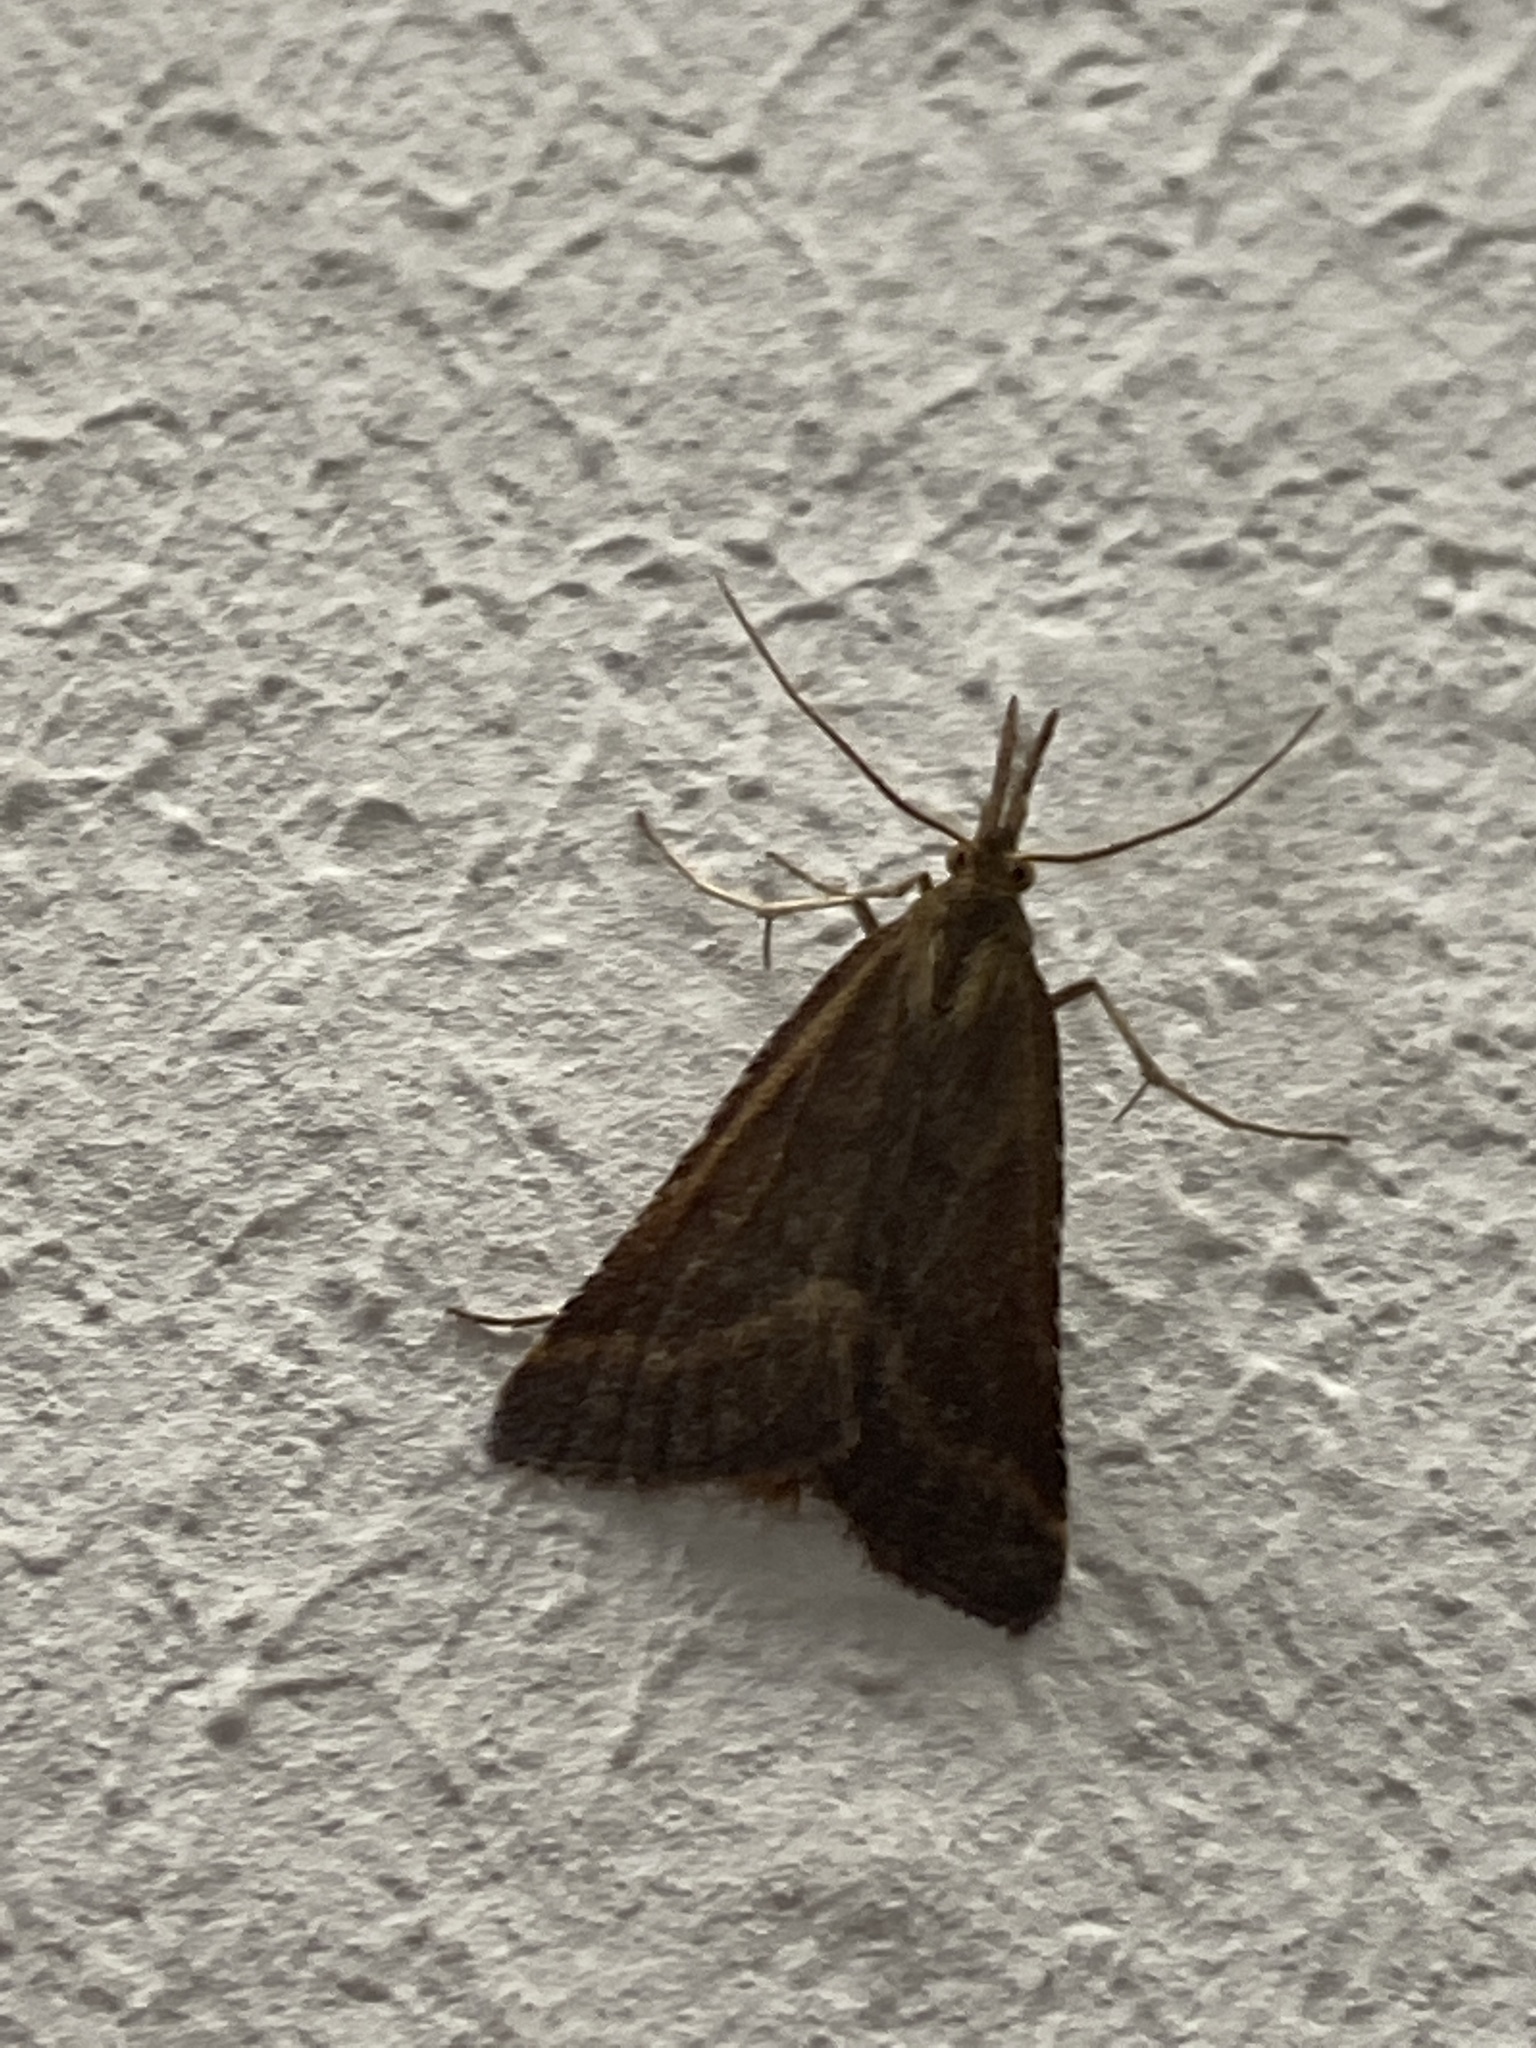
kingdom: Animalia
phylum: Arthropoda
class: Insecta
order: Lepidoptera
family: Pyralidae
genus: Synaphe
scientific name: Synaphe punctalis
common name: Long-legged tabby
